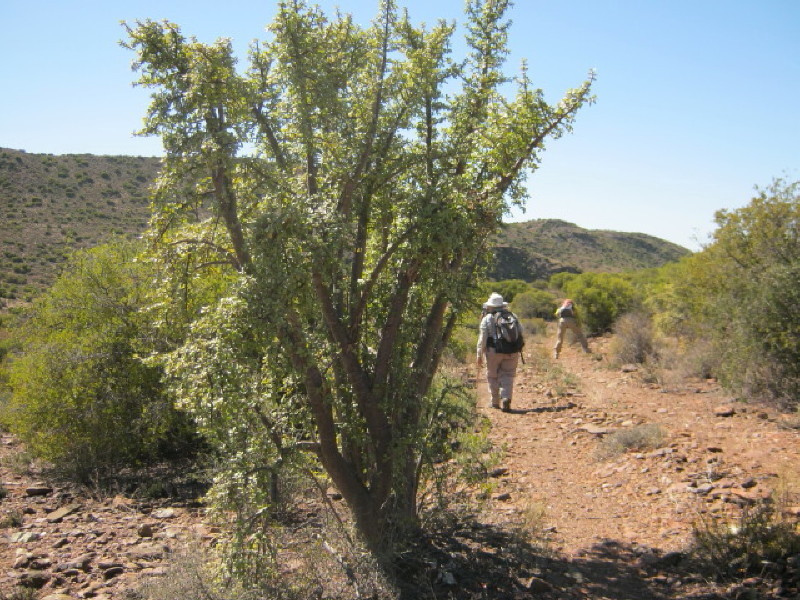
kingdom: Plantae
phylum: Tracheophyta
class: Magnoliopsida
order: Caryophyllales
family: Didiereaceae
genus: Portulacaria
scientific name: Portulacaria afra
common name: Elephant-bush
